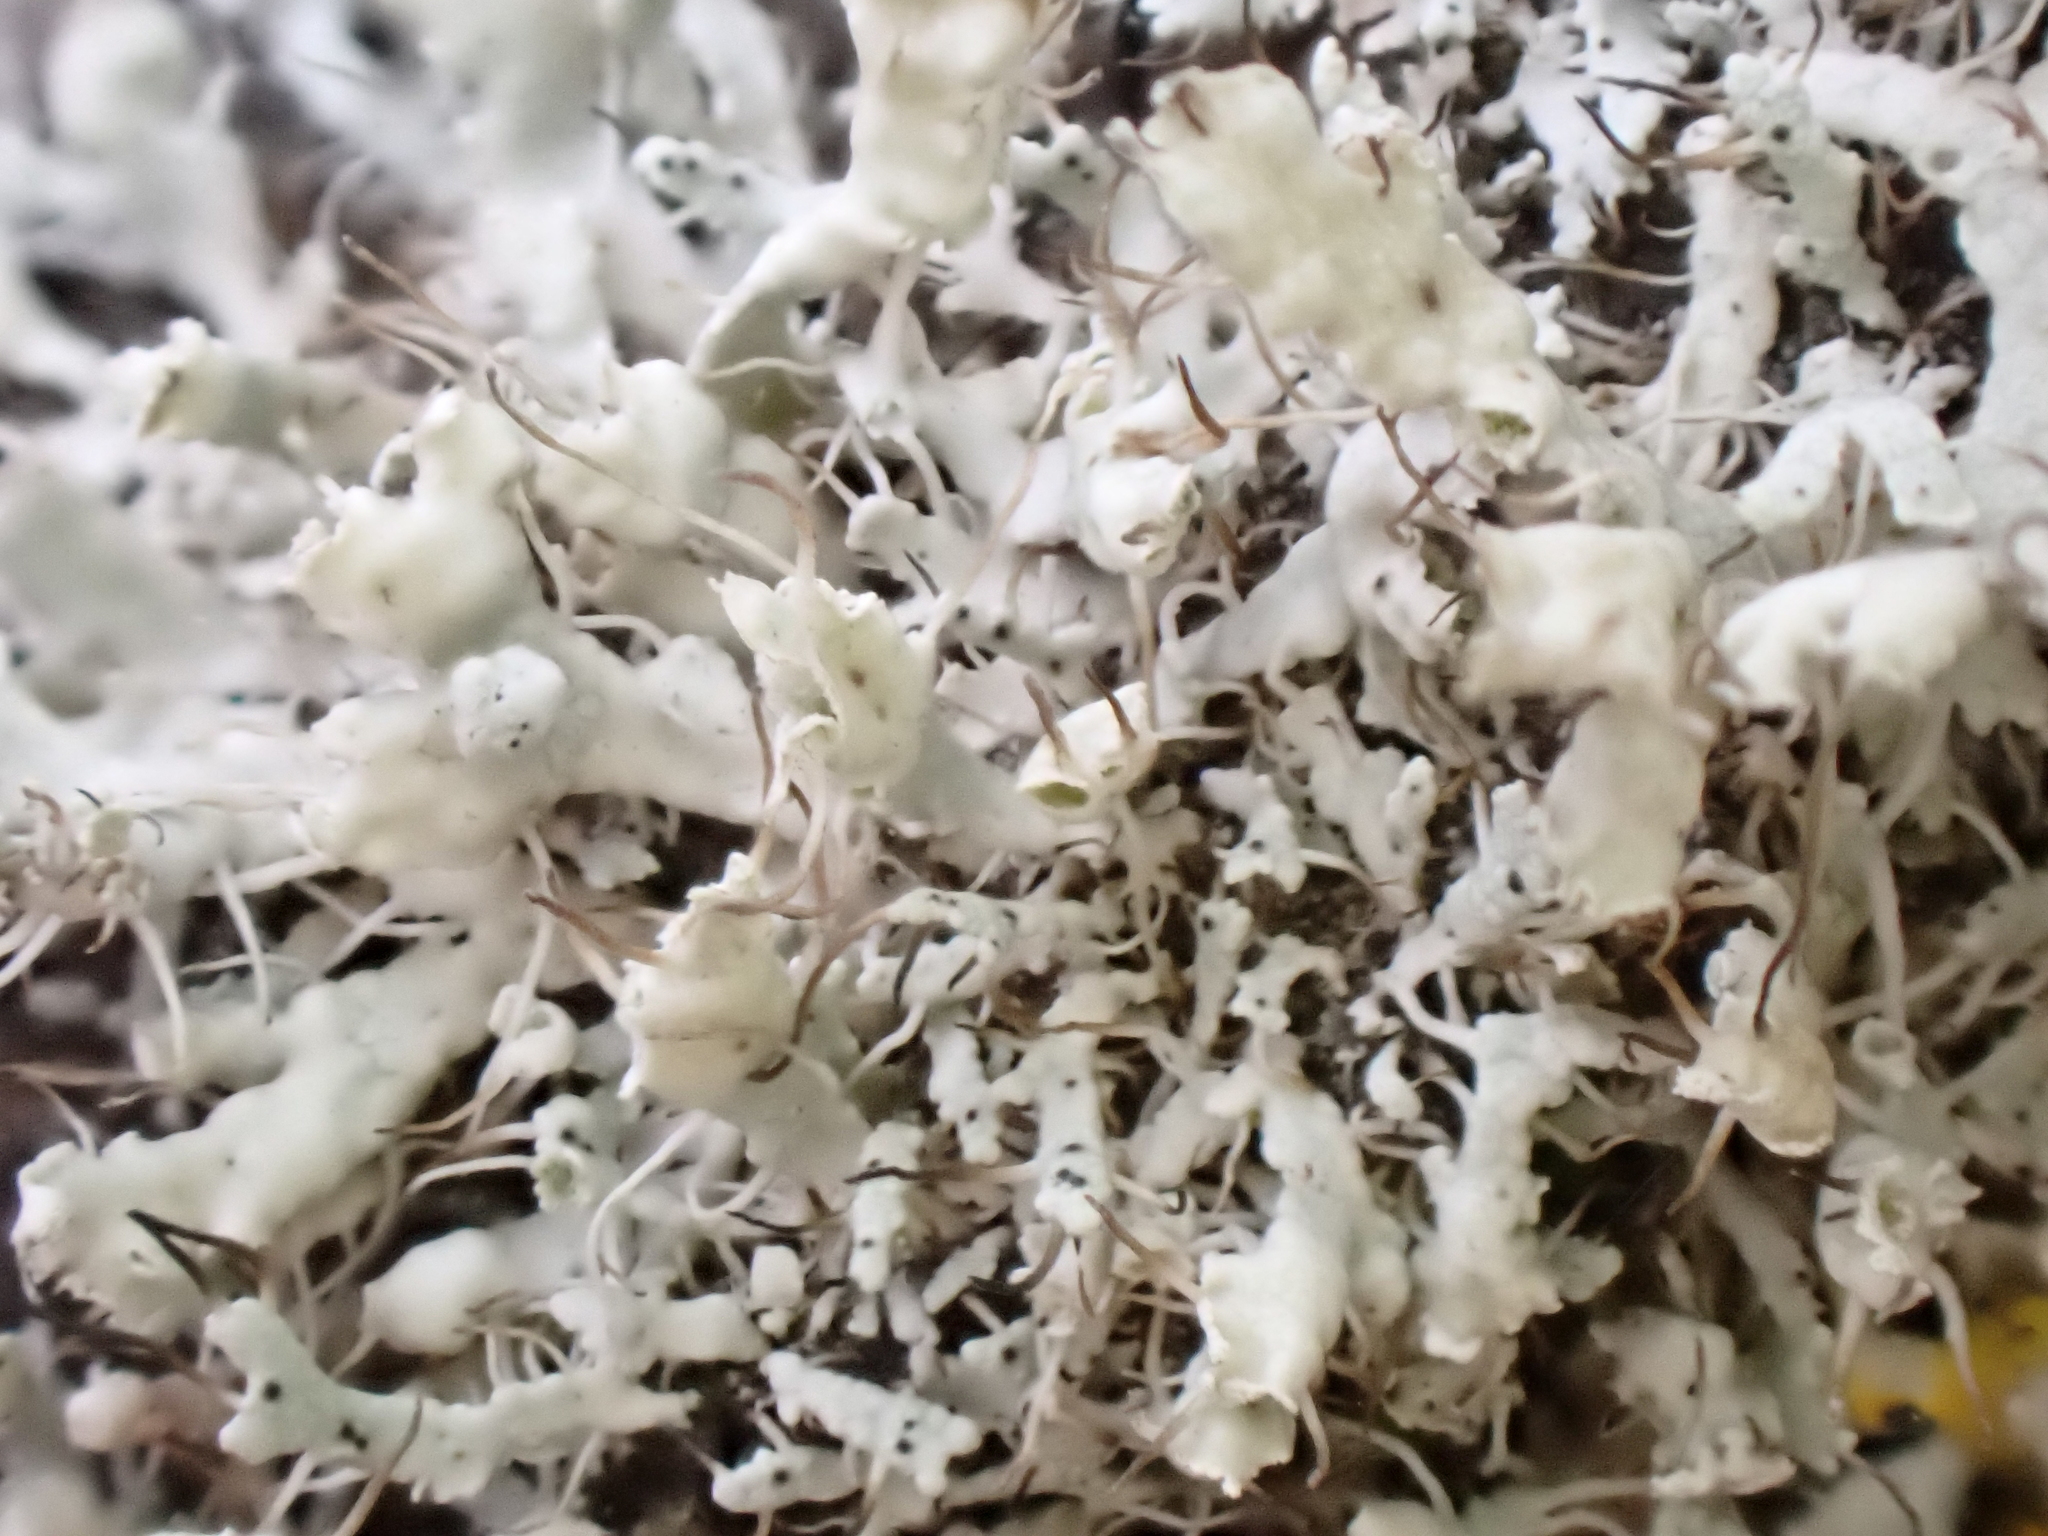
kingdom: Fungi
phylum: Ascomycota
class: Lecanoromycetes
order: Caliciales
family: Physciaceae
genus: Physcia
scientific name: Physcia adscendens
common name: Hooded rosette lichen
